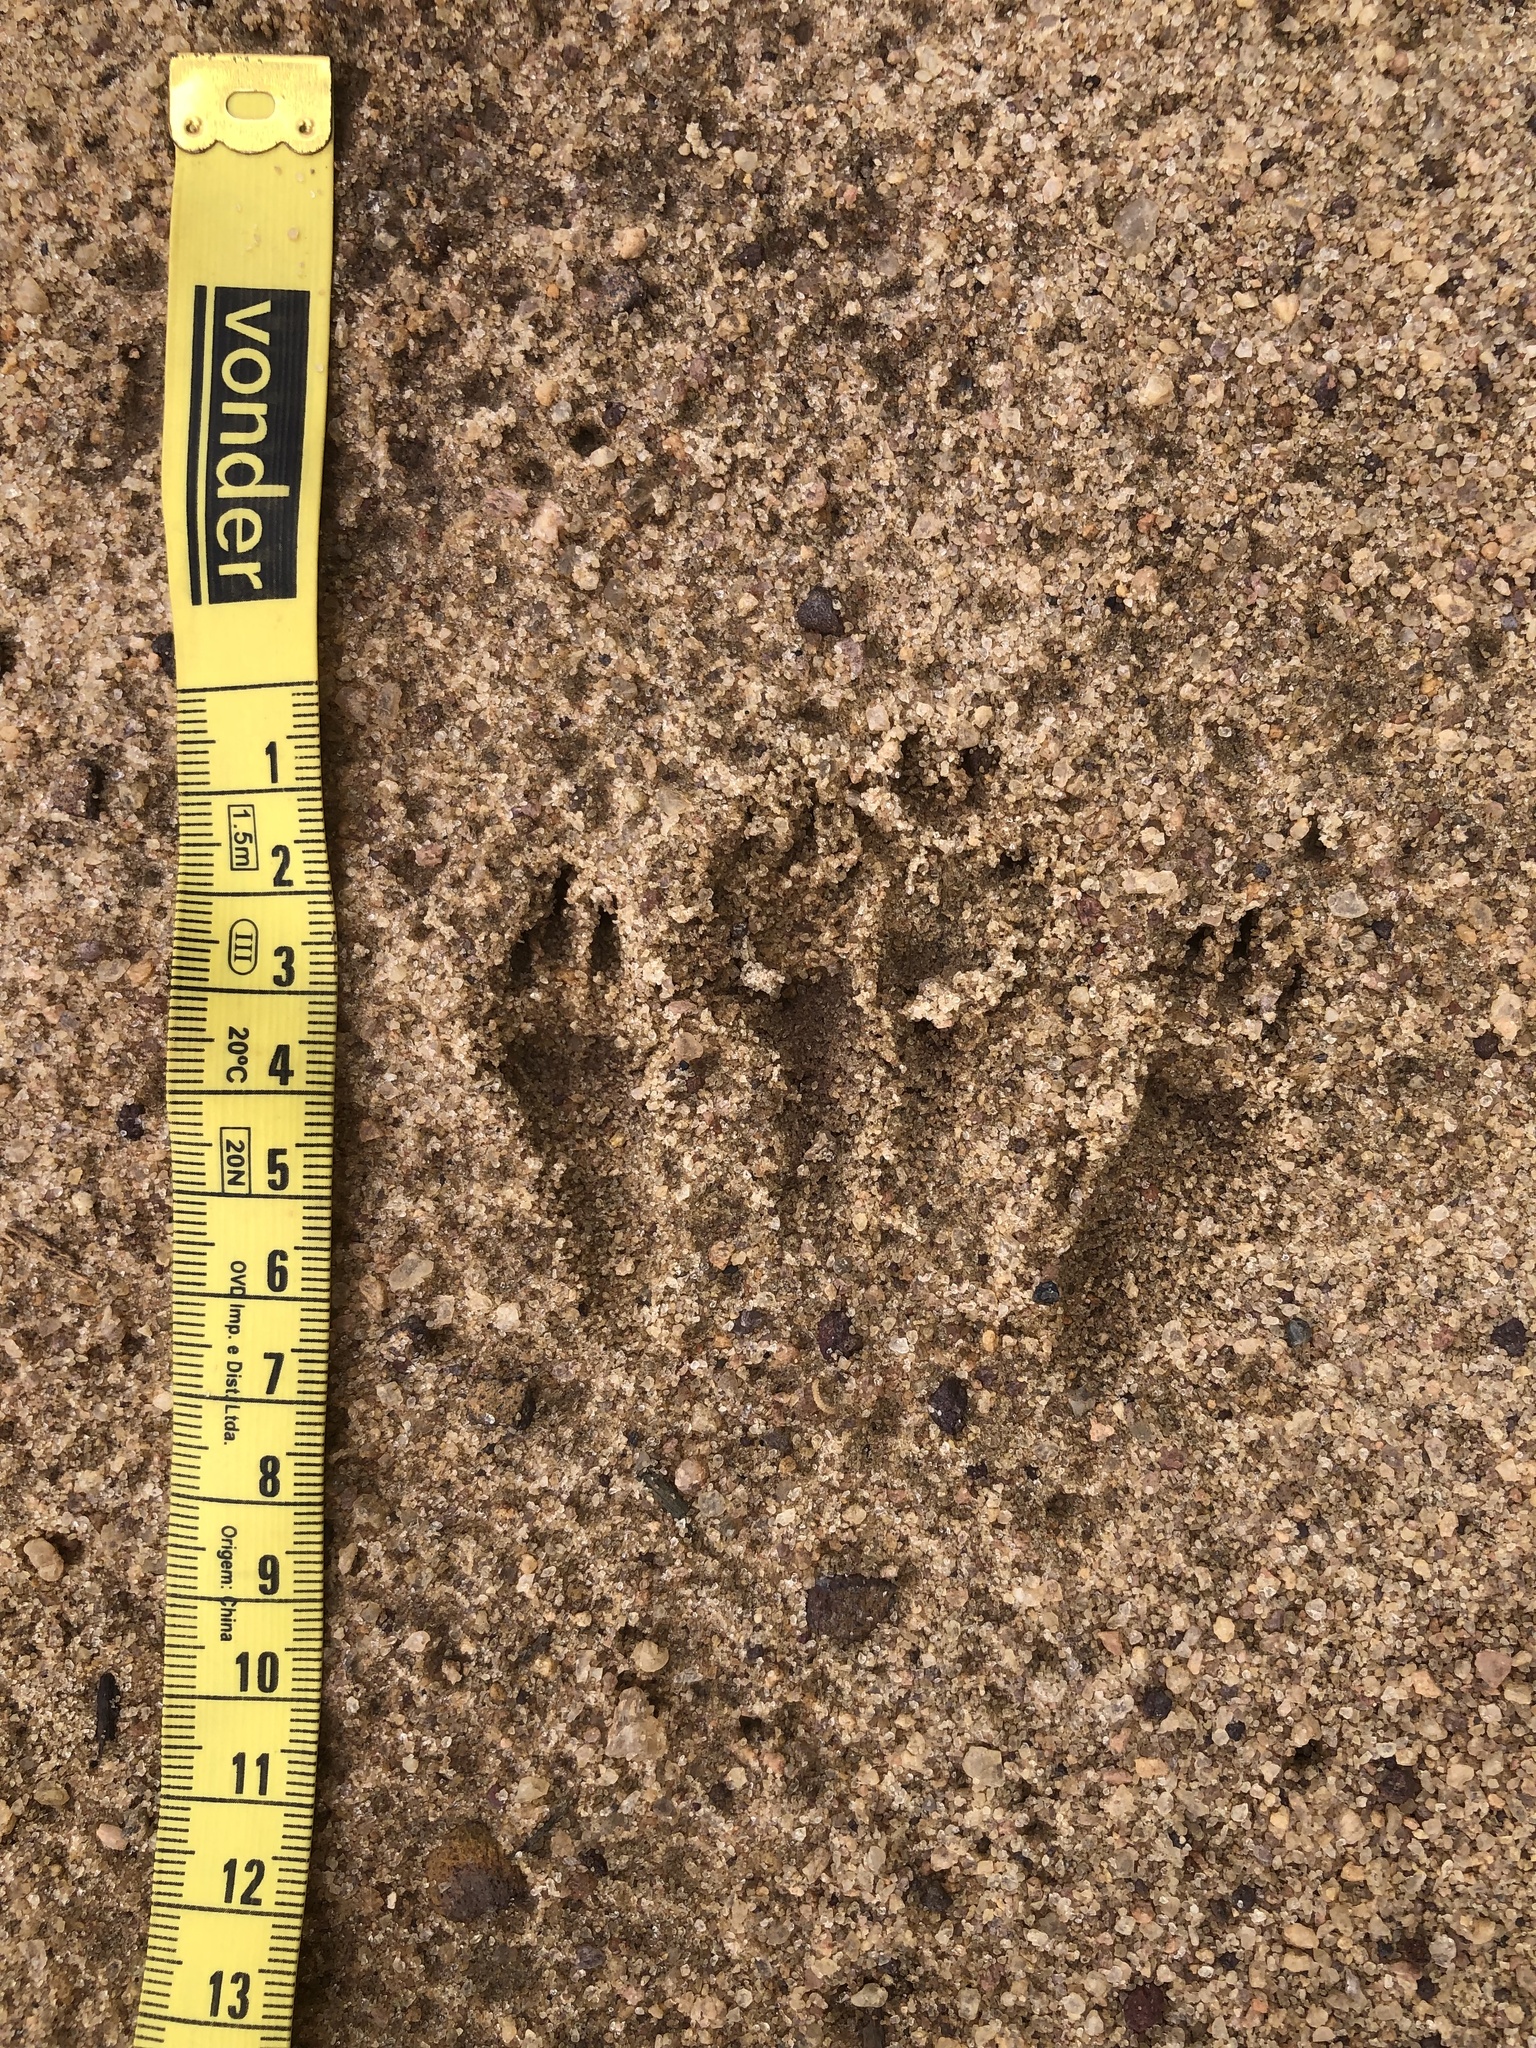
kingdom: Animalia
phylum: Chordata
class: Mammalia
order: Lagomorpha
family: Leporidae
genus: Sylvilagus
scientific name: Sylvilagus brasiliensis
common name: Tapeti
